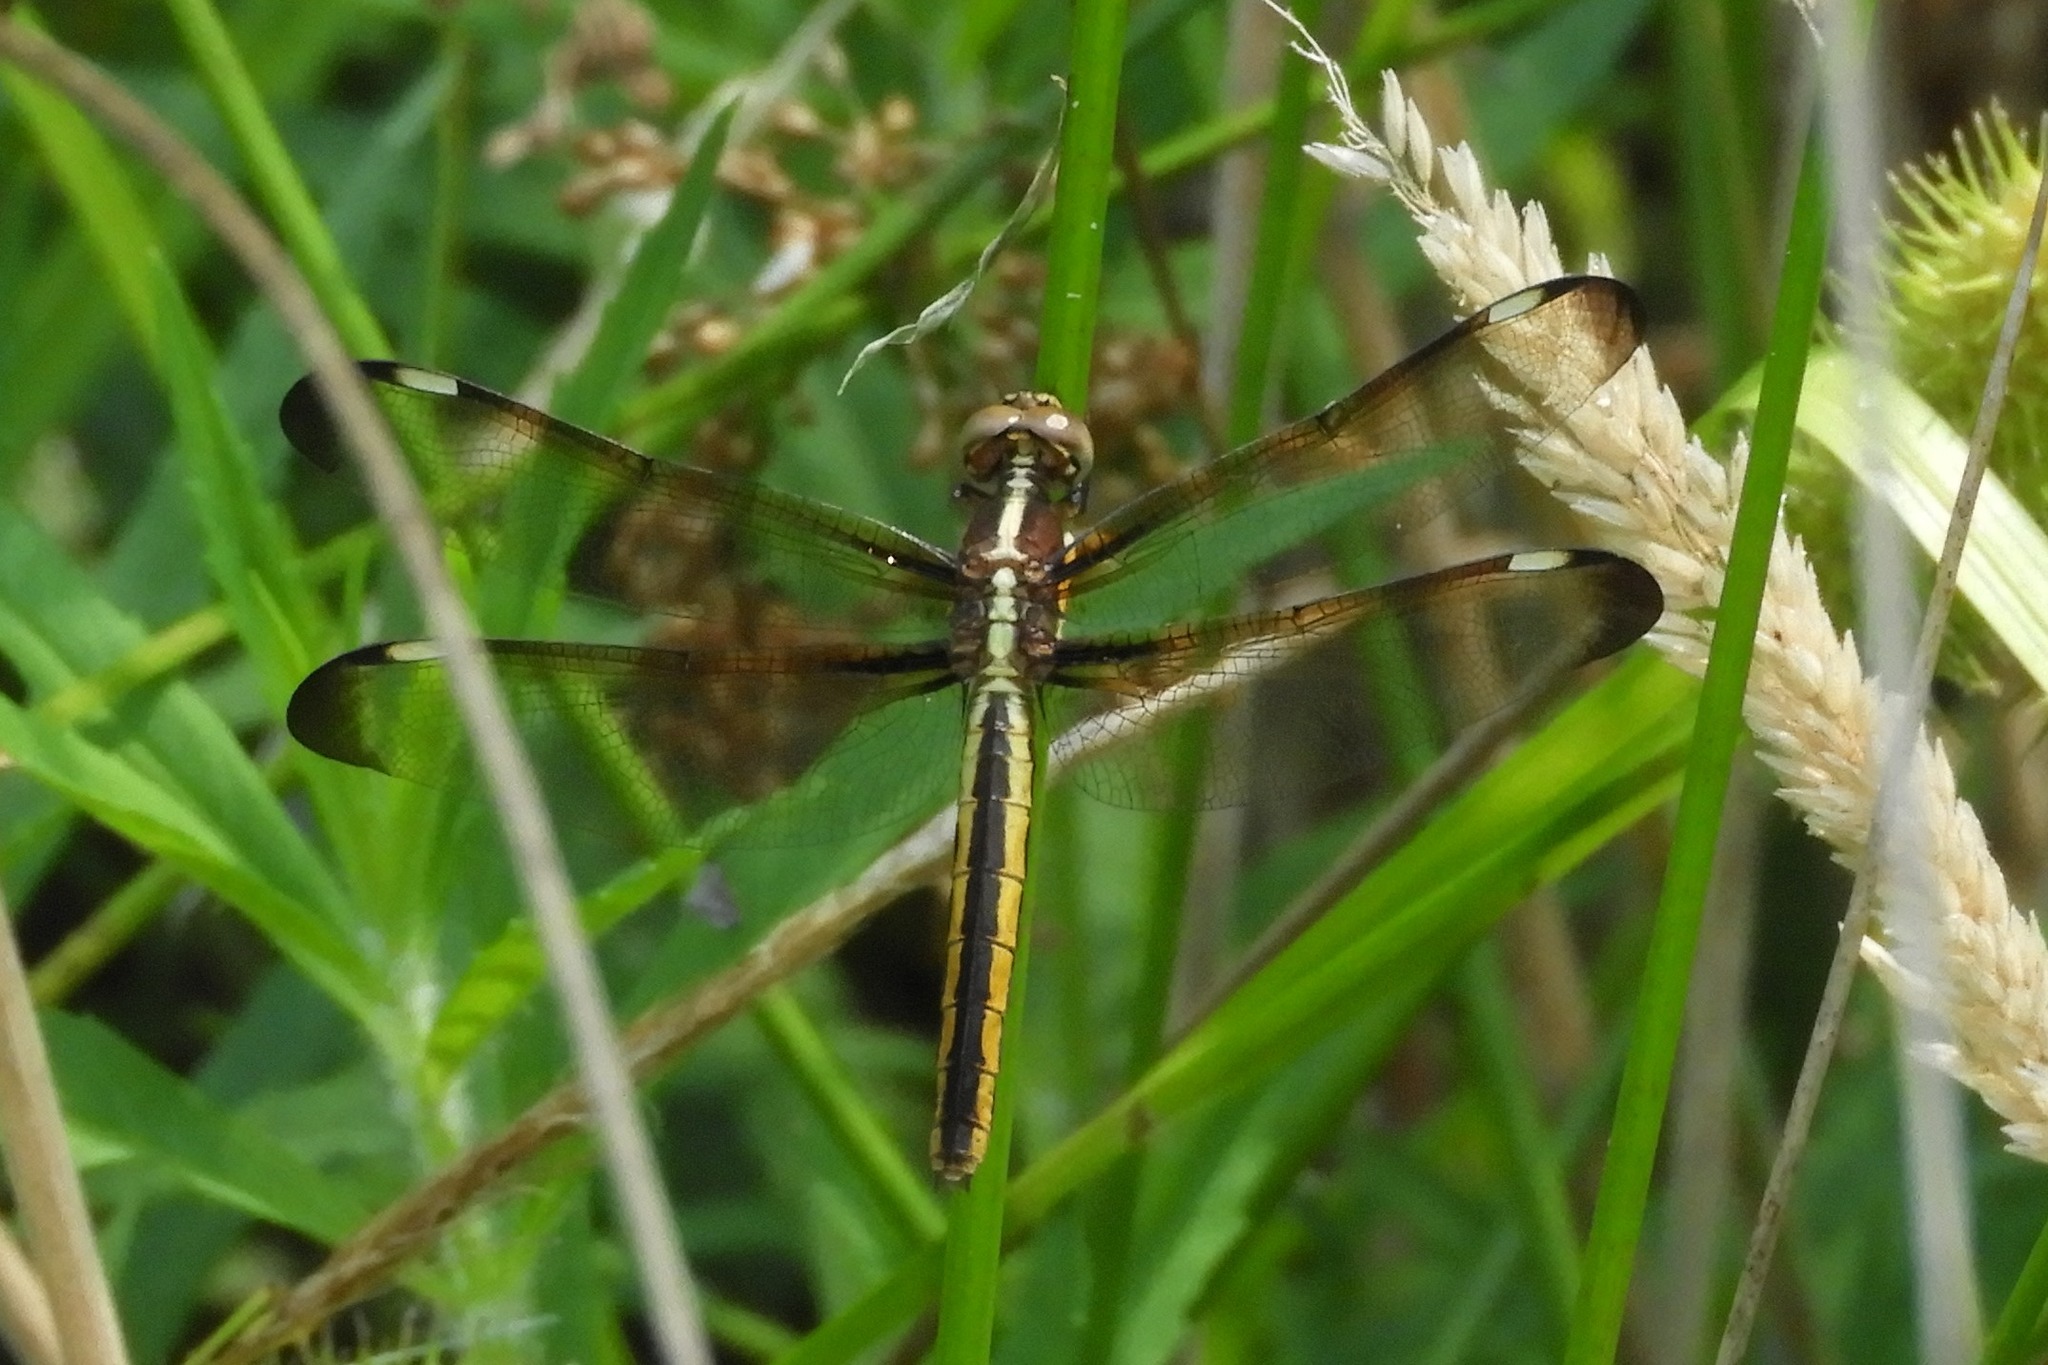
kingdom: Animalia
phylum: Arthropoda
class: Insecta
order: Odonata
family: Libellulidae
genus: Libellula
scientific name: Libellula cyanea
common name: Spangled skimmer
